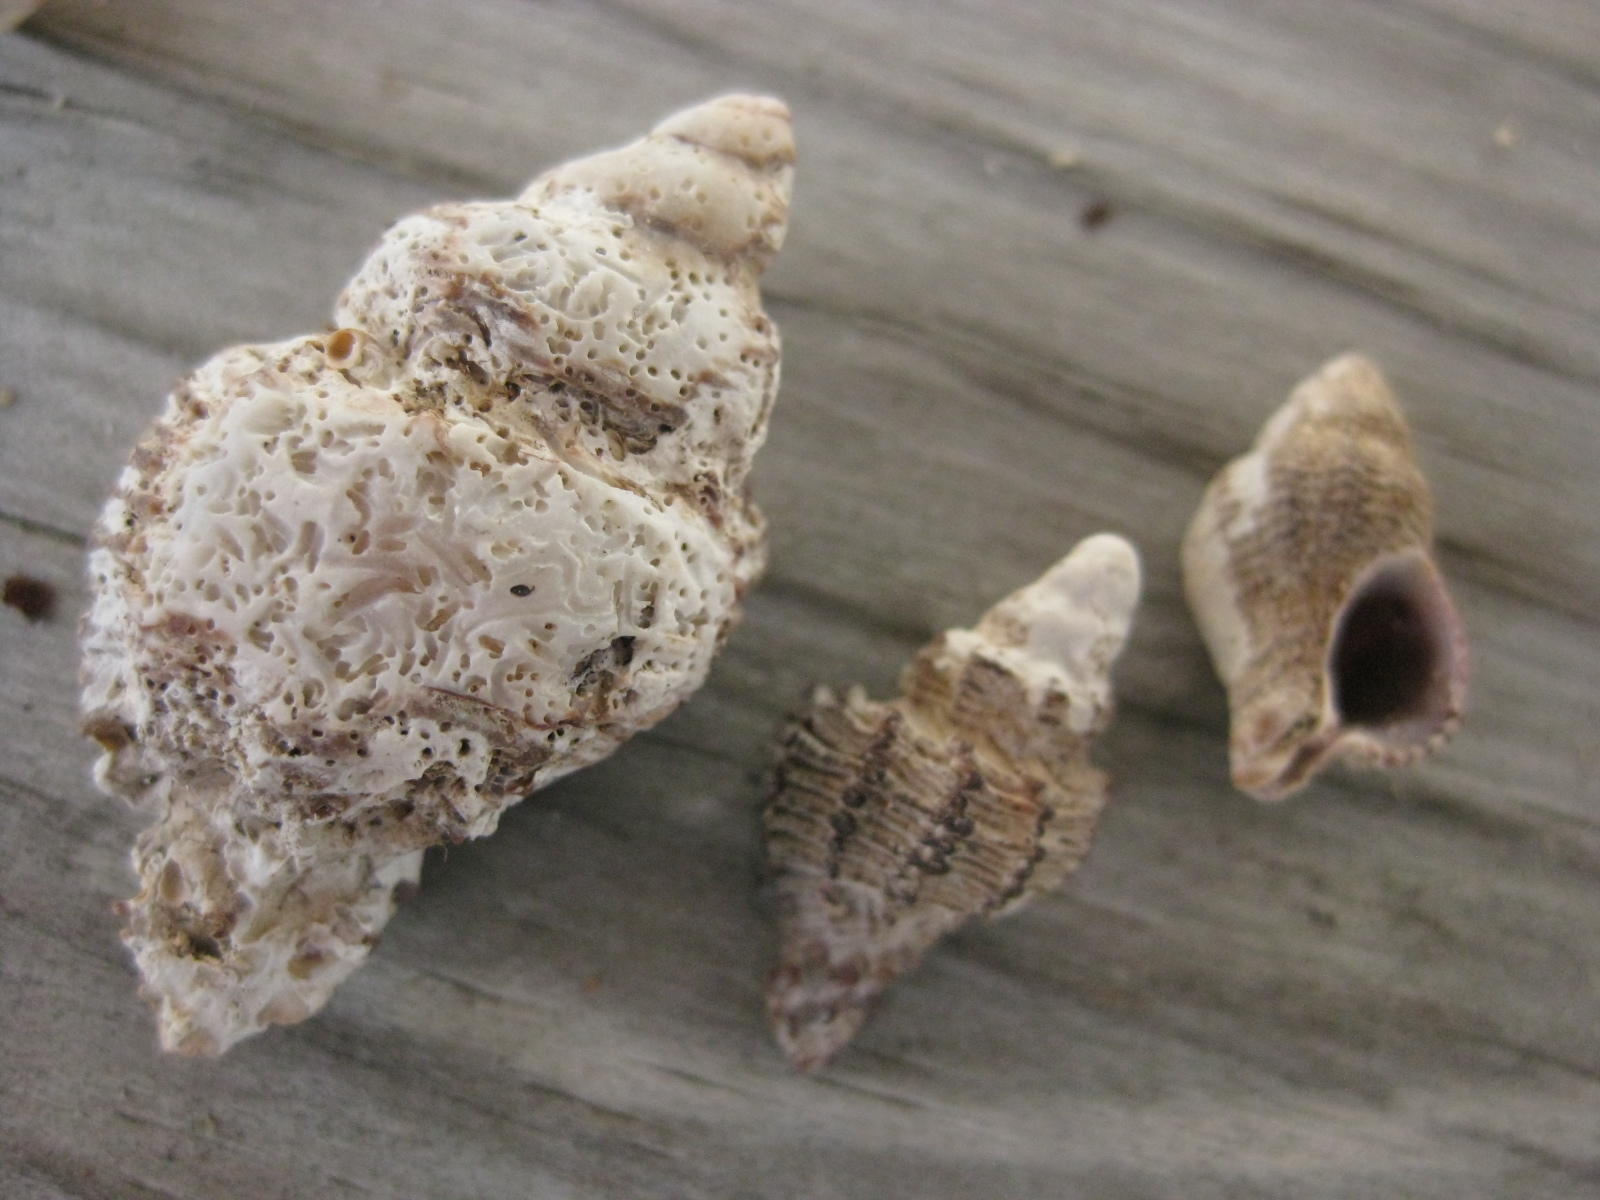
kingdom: Animalia
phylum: Mollusca
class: Gastropoda
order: Neogastropoda
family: Muricidae
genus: Murexsul
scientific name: Murexsul octogonus
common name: Octagon murex
